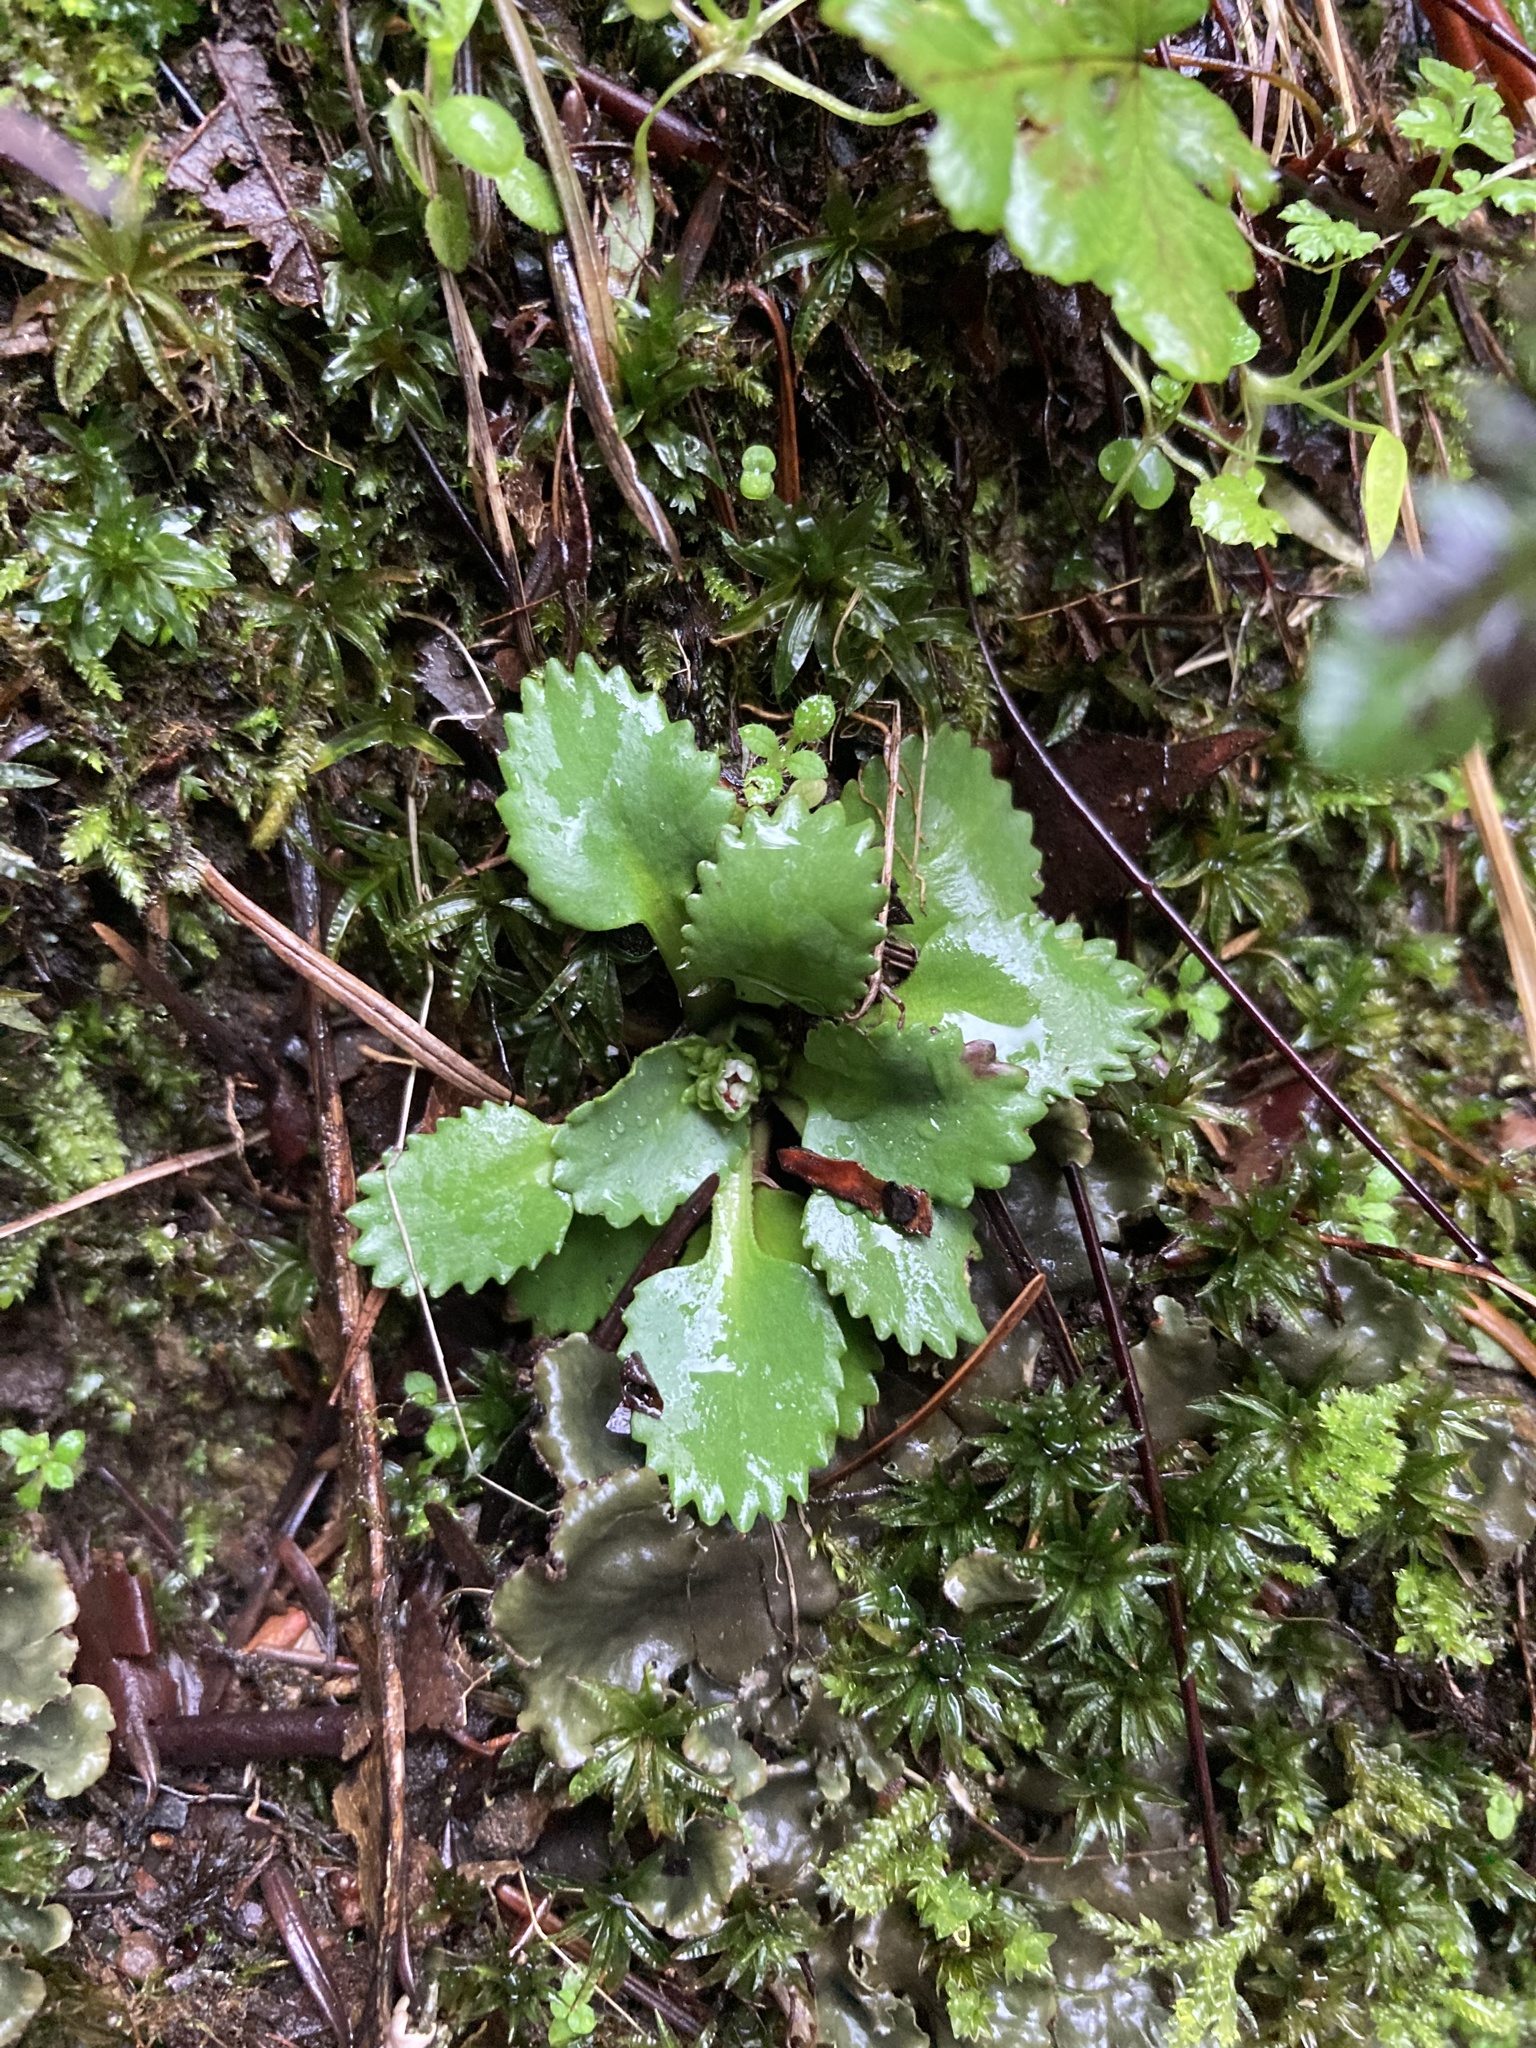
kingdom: Plantae
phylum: Tracheophyta
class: Magnoliopsida
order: Saxifragales
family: Saxifragaceae
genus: Micranthes
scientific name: Micranthes rufidula
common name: Rustyhair saxifrage
